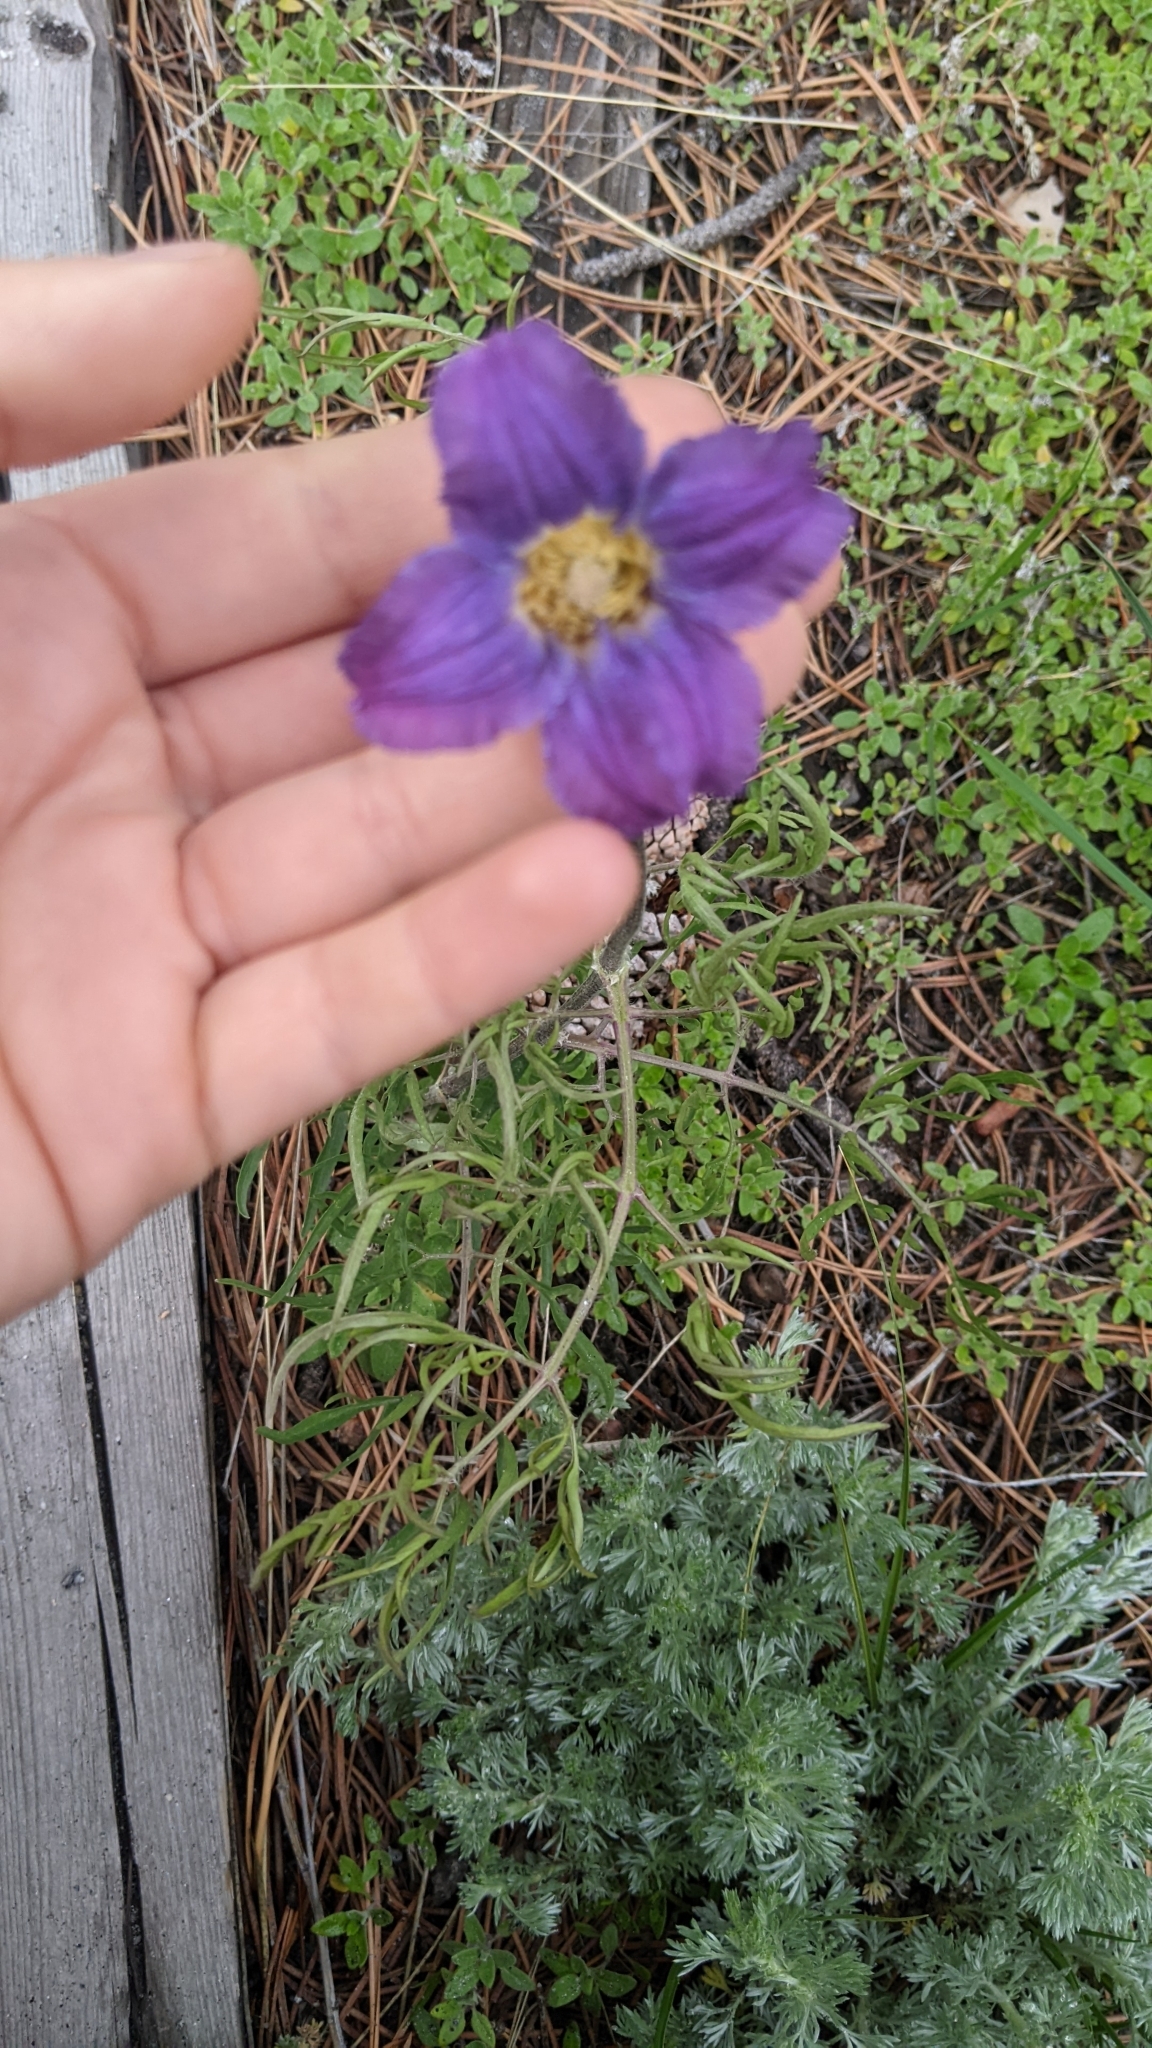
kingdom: Plantae
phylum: Tracheophyta
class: Magnoliopsida
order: Ranunculales
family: Ranunculaceae
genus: Clematis
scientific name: Clematis hirsutissima
